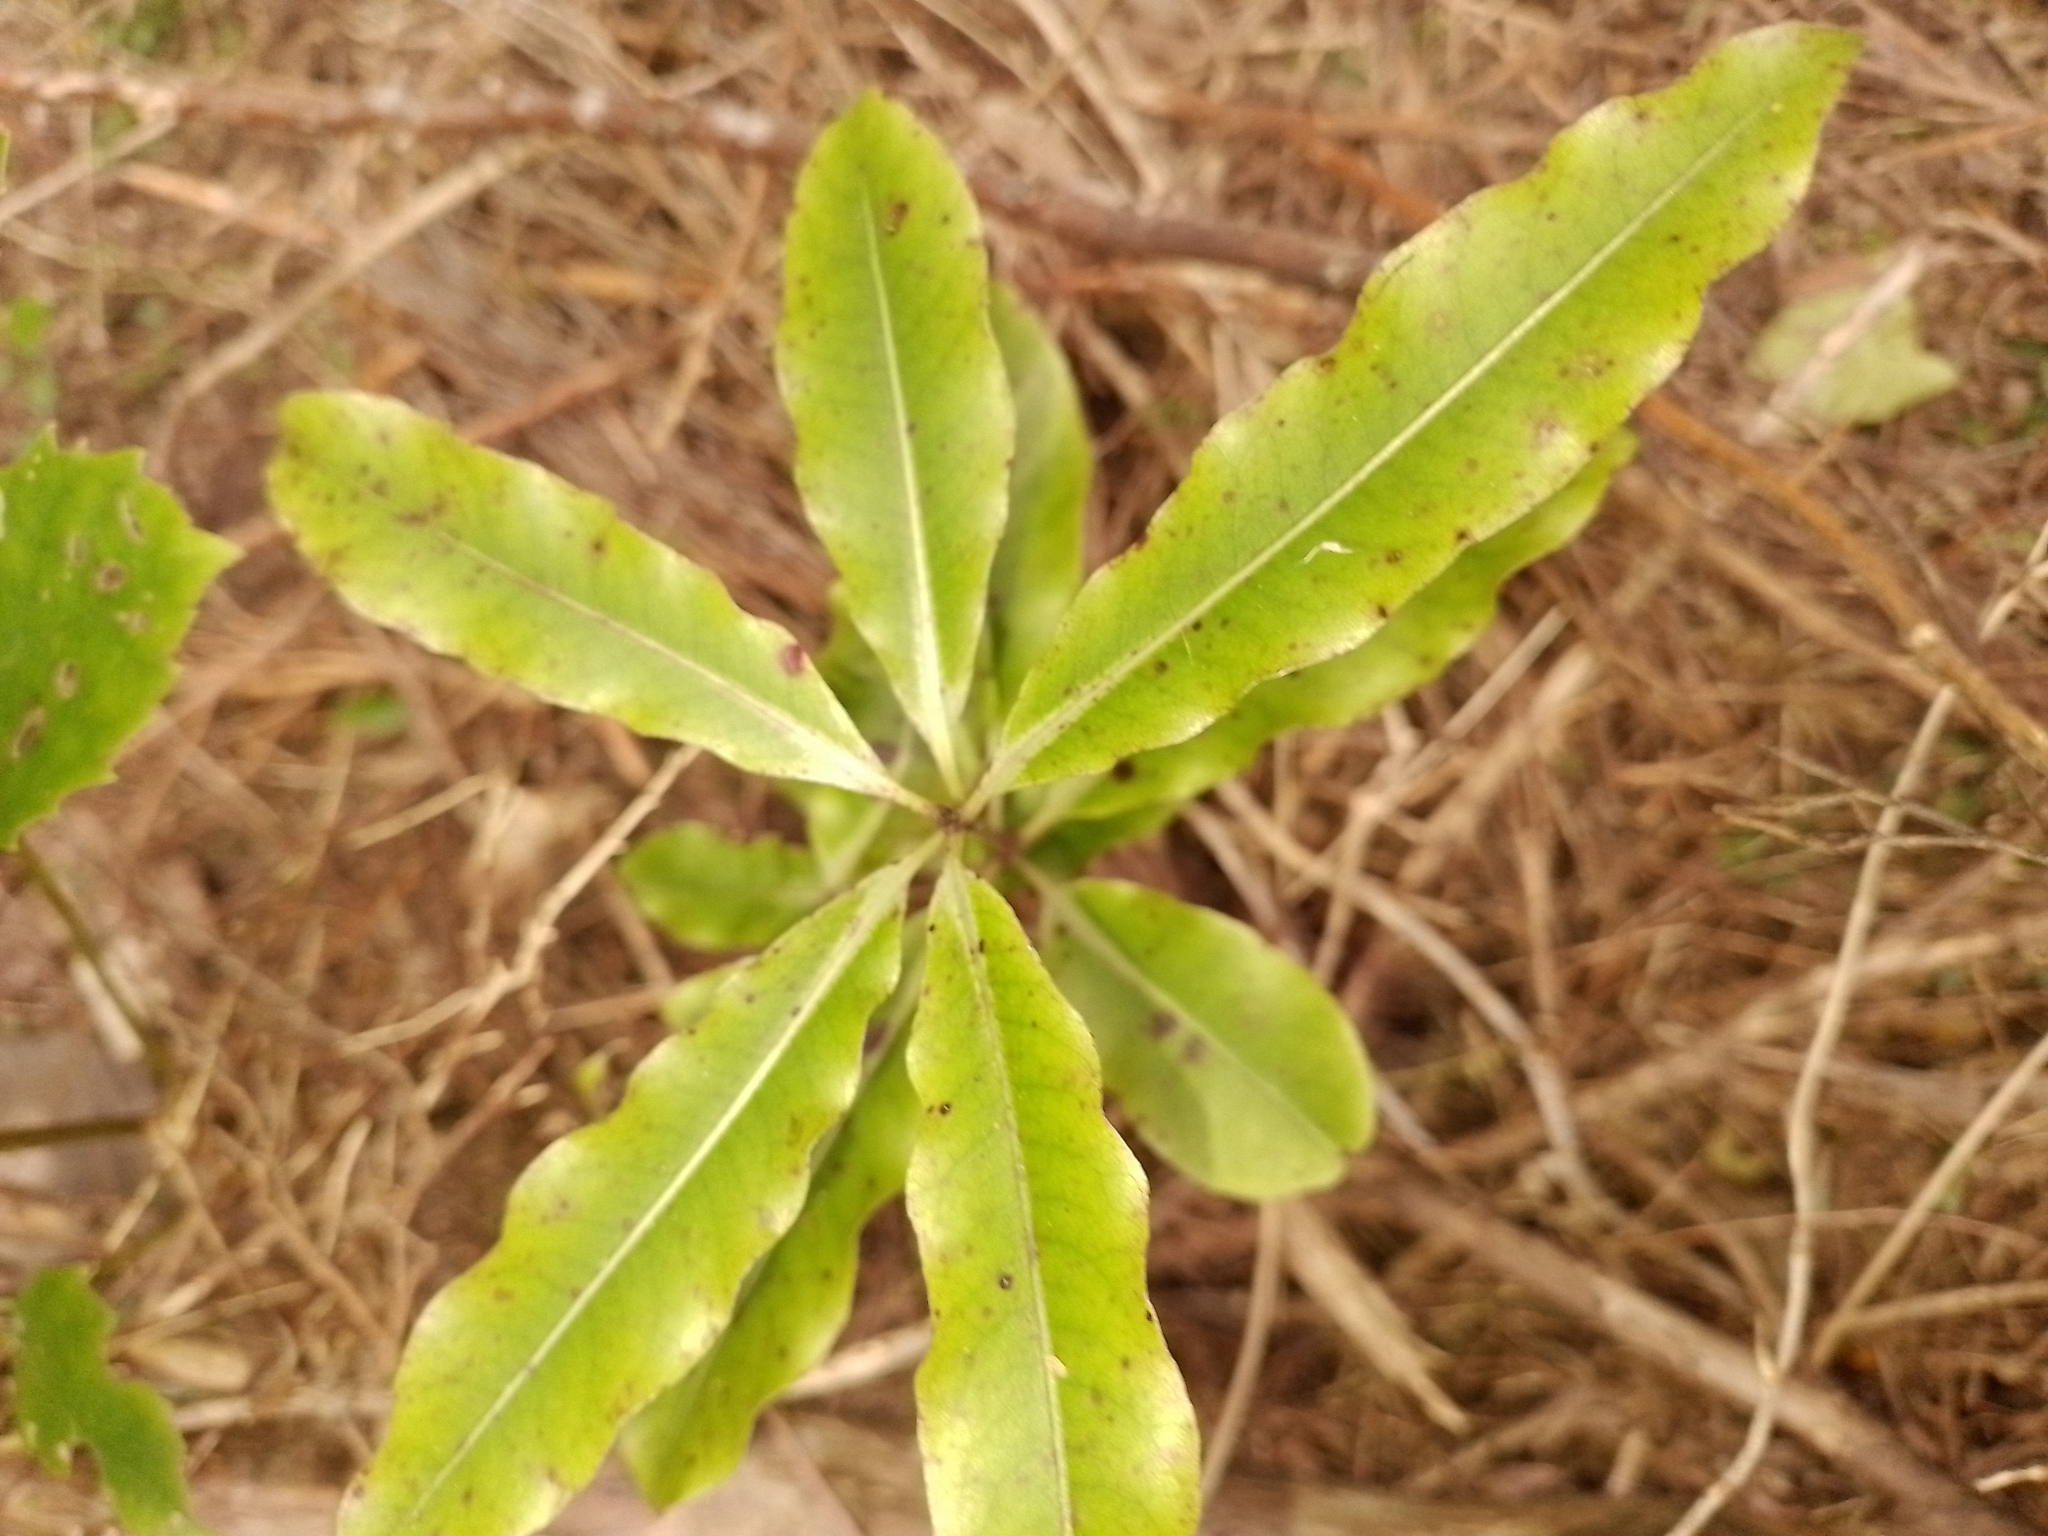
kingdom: Plantae
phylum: Tracheophyta
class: Magnoliopsida
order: Apiales
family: Pittosporaceae
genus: Pittosporum
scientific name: Pittosporum eugenioides
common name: Lemonwood
